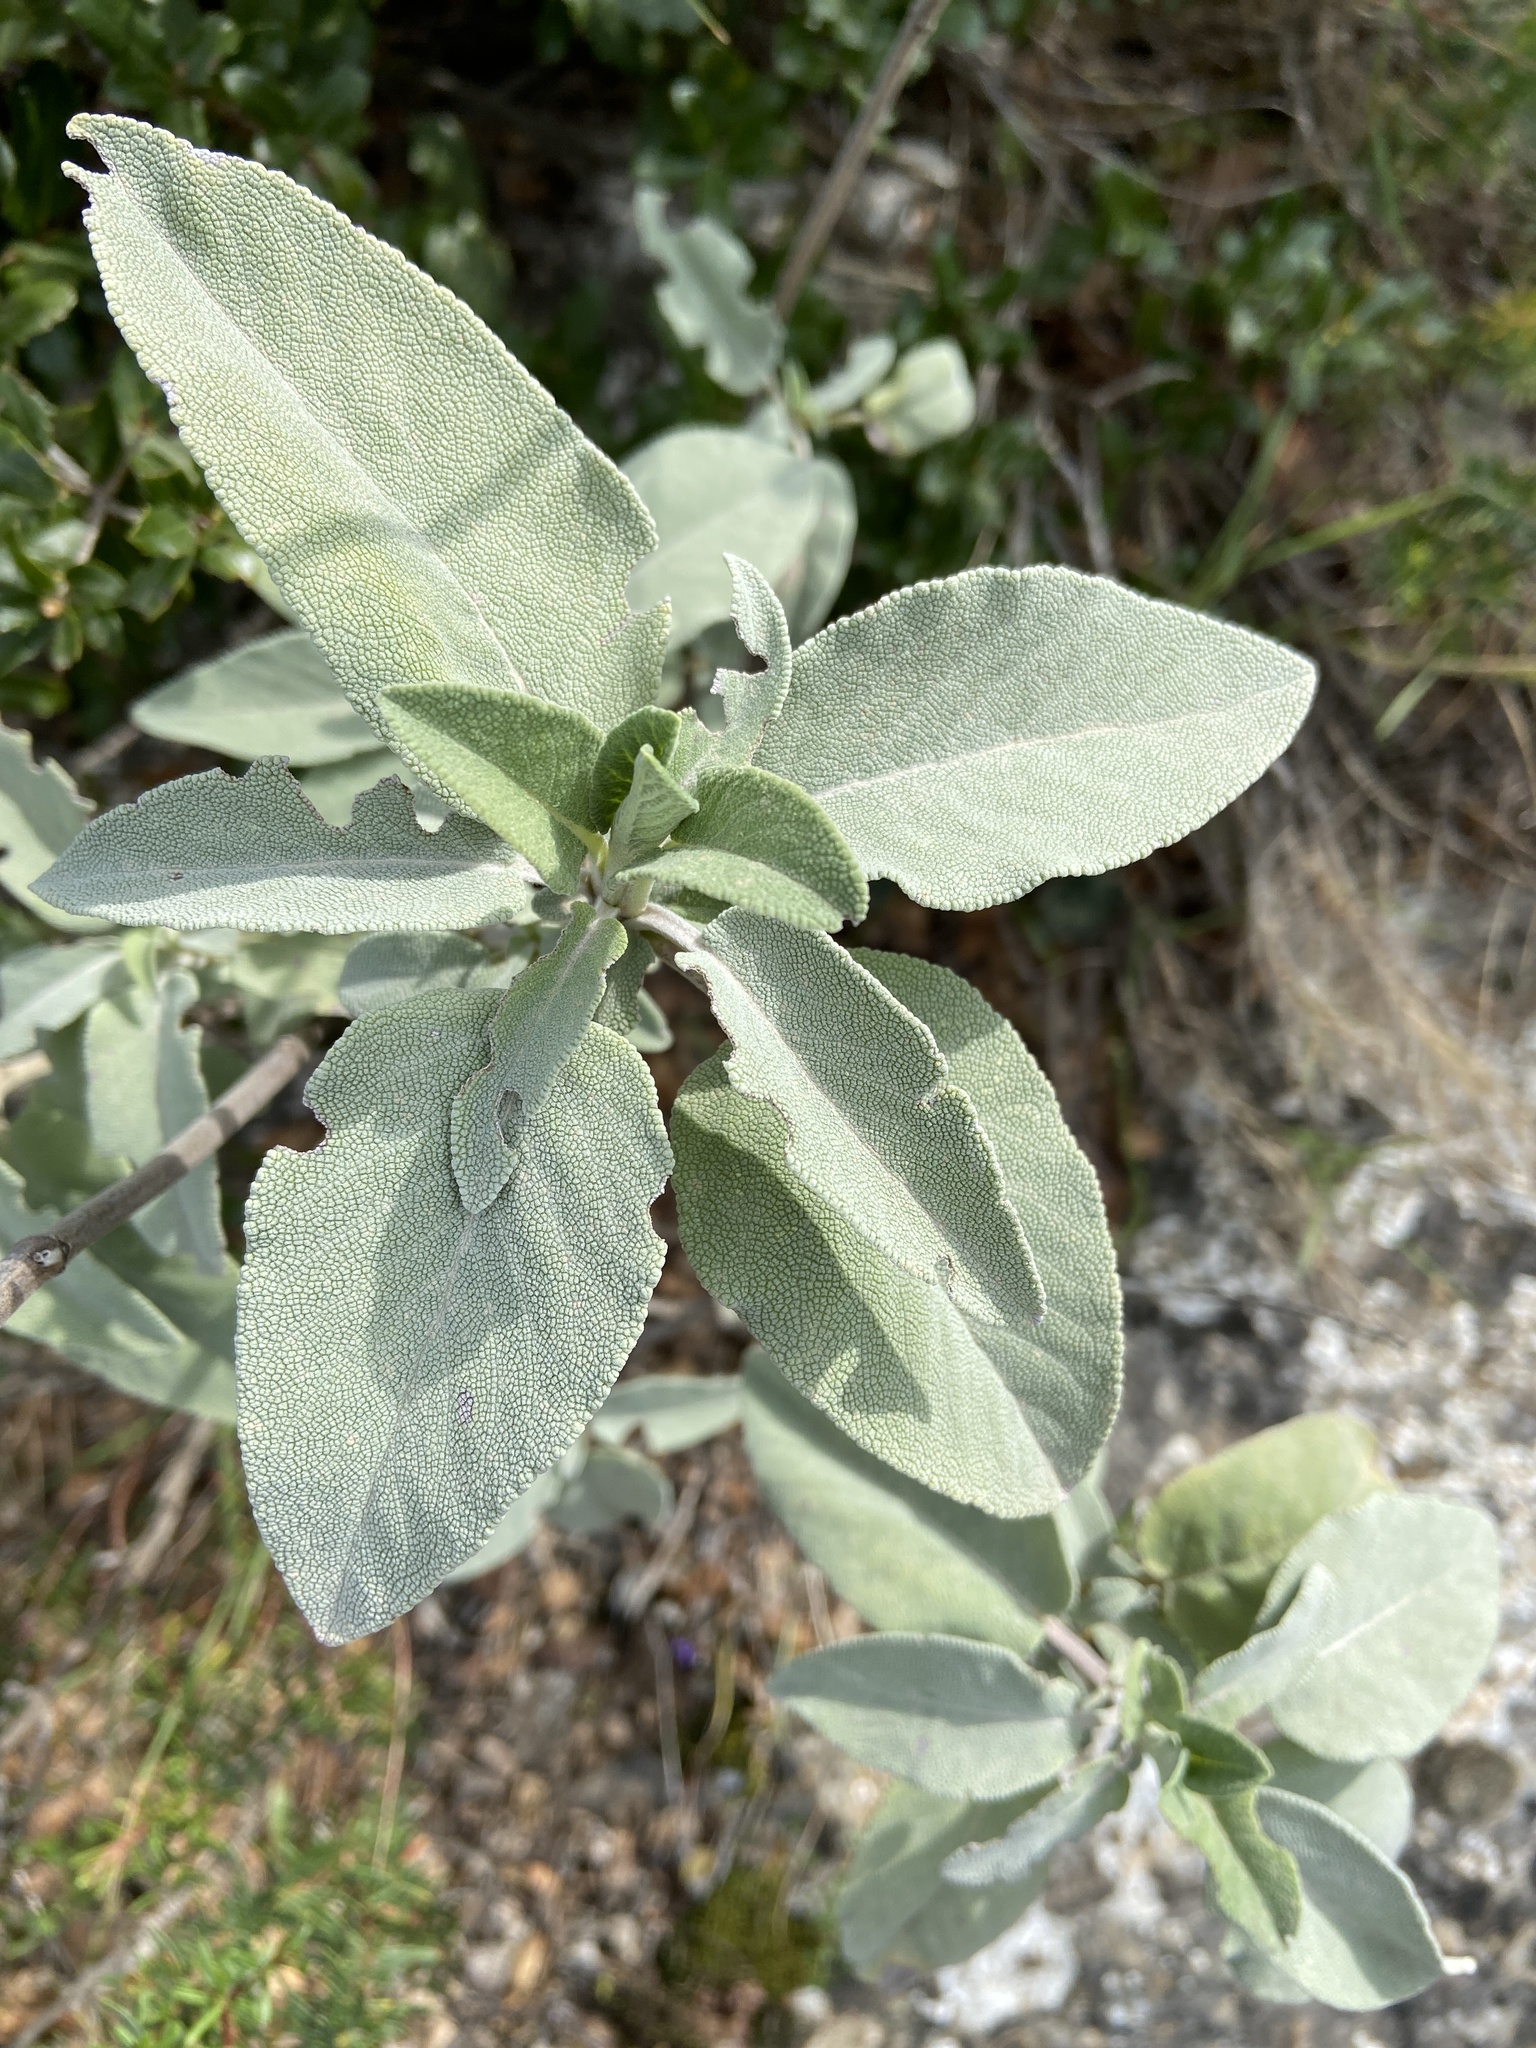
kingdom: Plantae
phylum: Tracheophyta
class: Magnoliopsida
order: Lamiales
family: Lamiaceae
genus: Salvia
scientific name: Salvia pomifera
